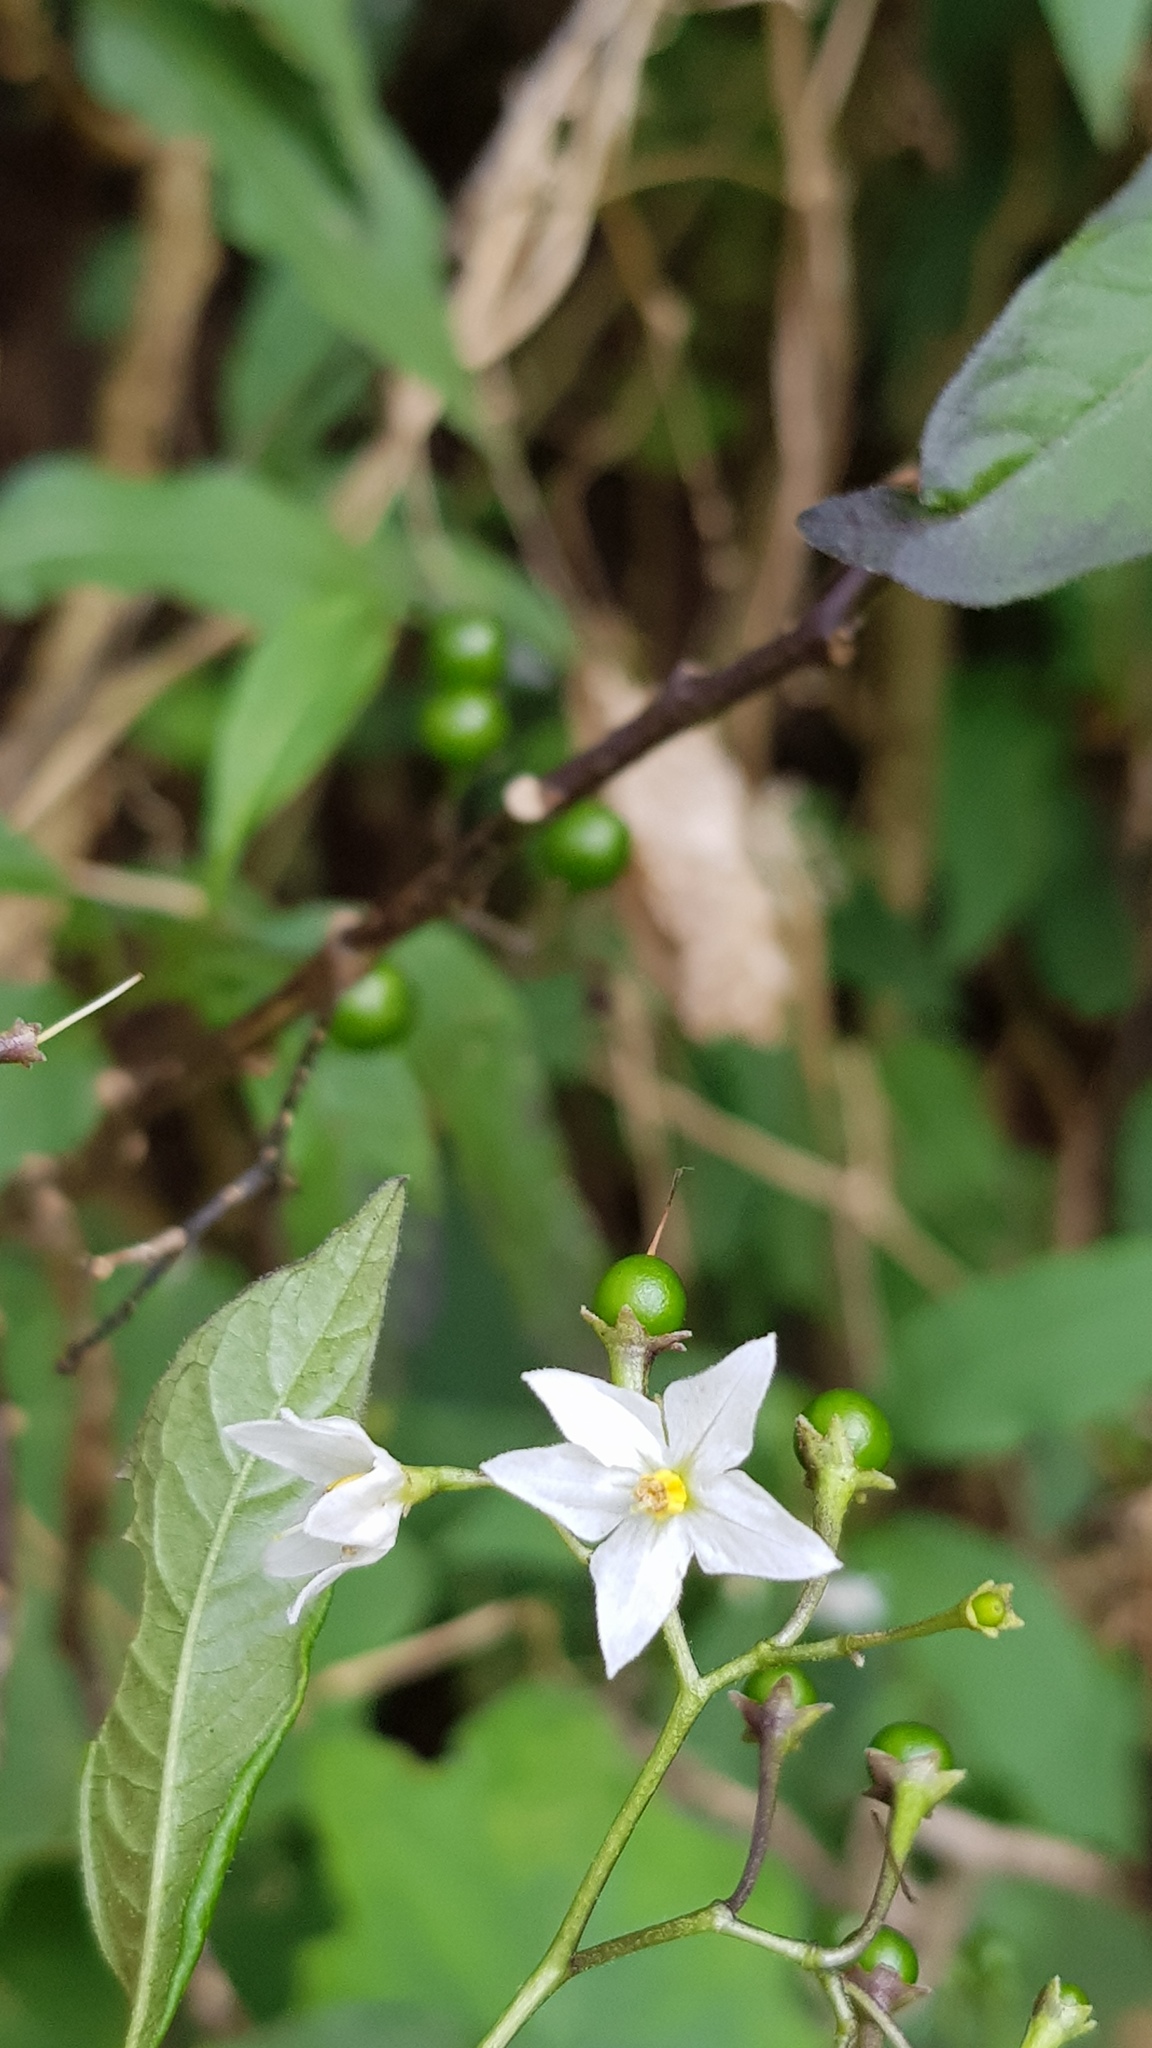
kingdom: Plantae
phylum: Tracheophyta
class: Magnoliopsida
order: Solanales
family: Solanaceae
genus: Solanum
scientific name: Solanum pubigerum
